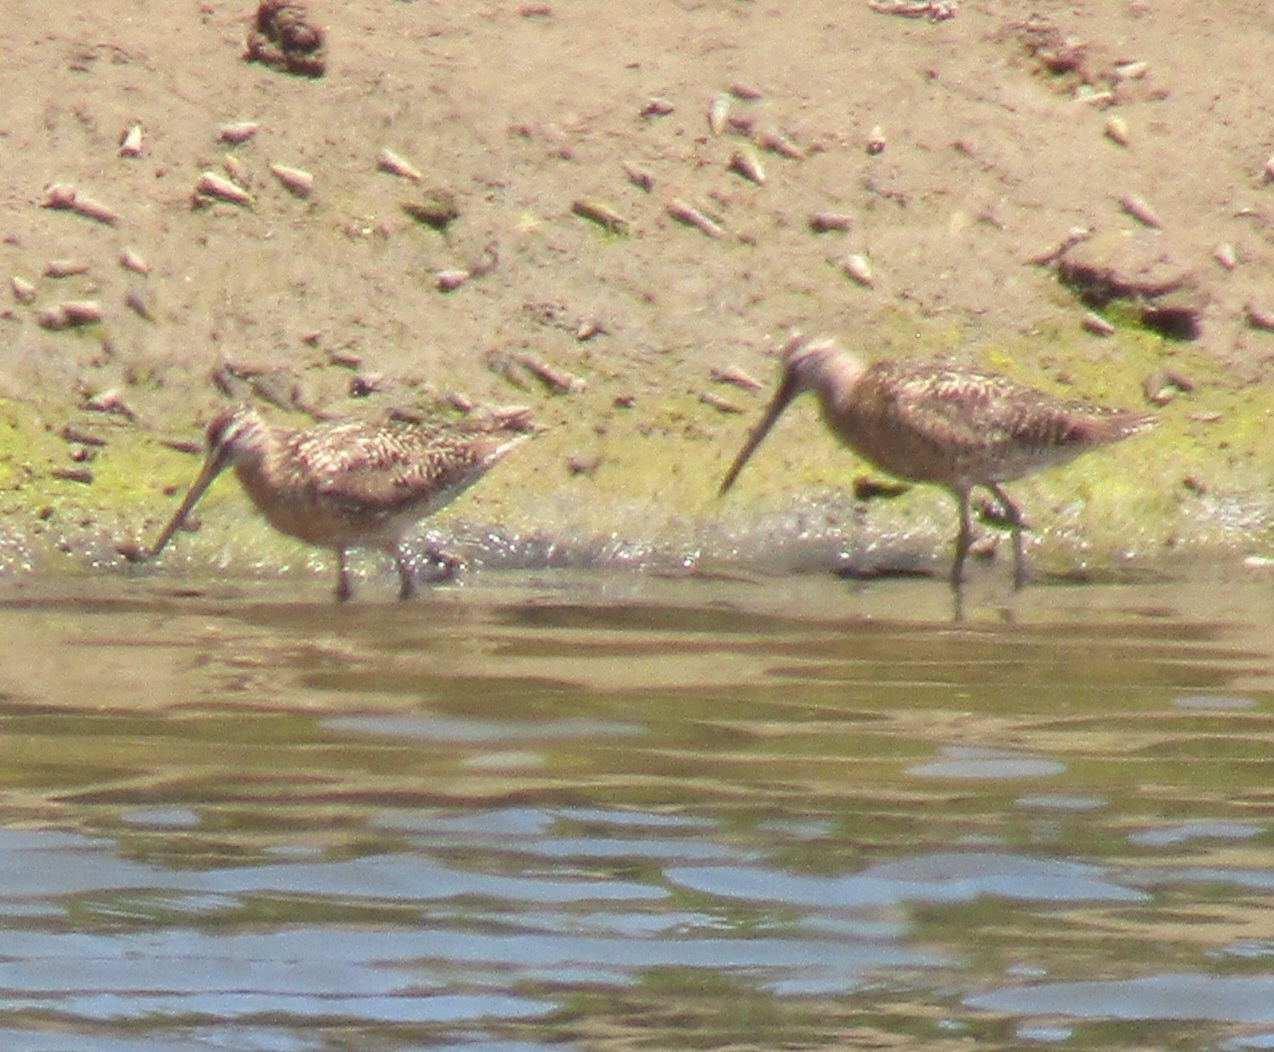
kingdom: Animalia
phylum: Chordata
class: Aves
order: Charadriiformes
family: Scolopacidae
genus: Limnodromus
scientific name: Limnodromus griseus
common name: Short-billed dowitcher
